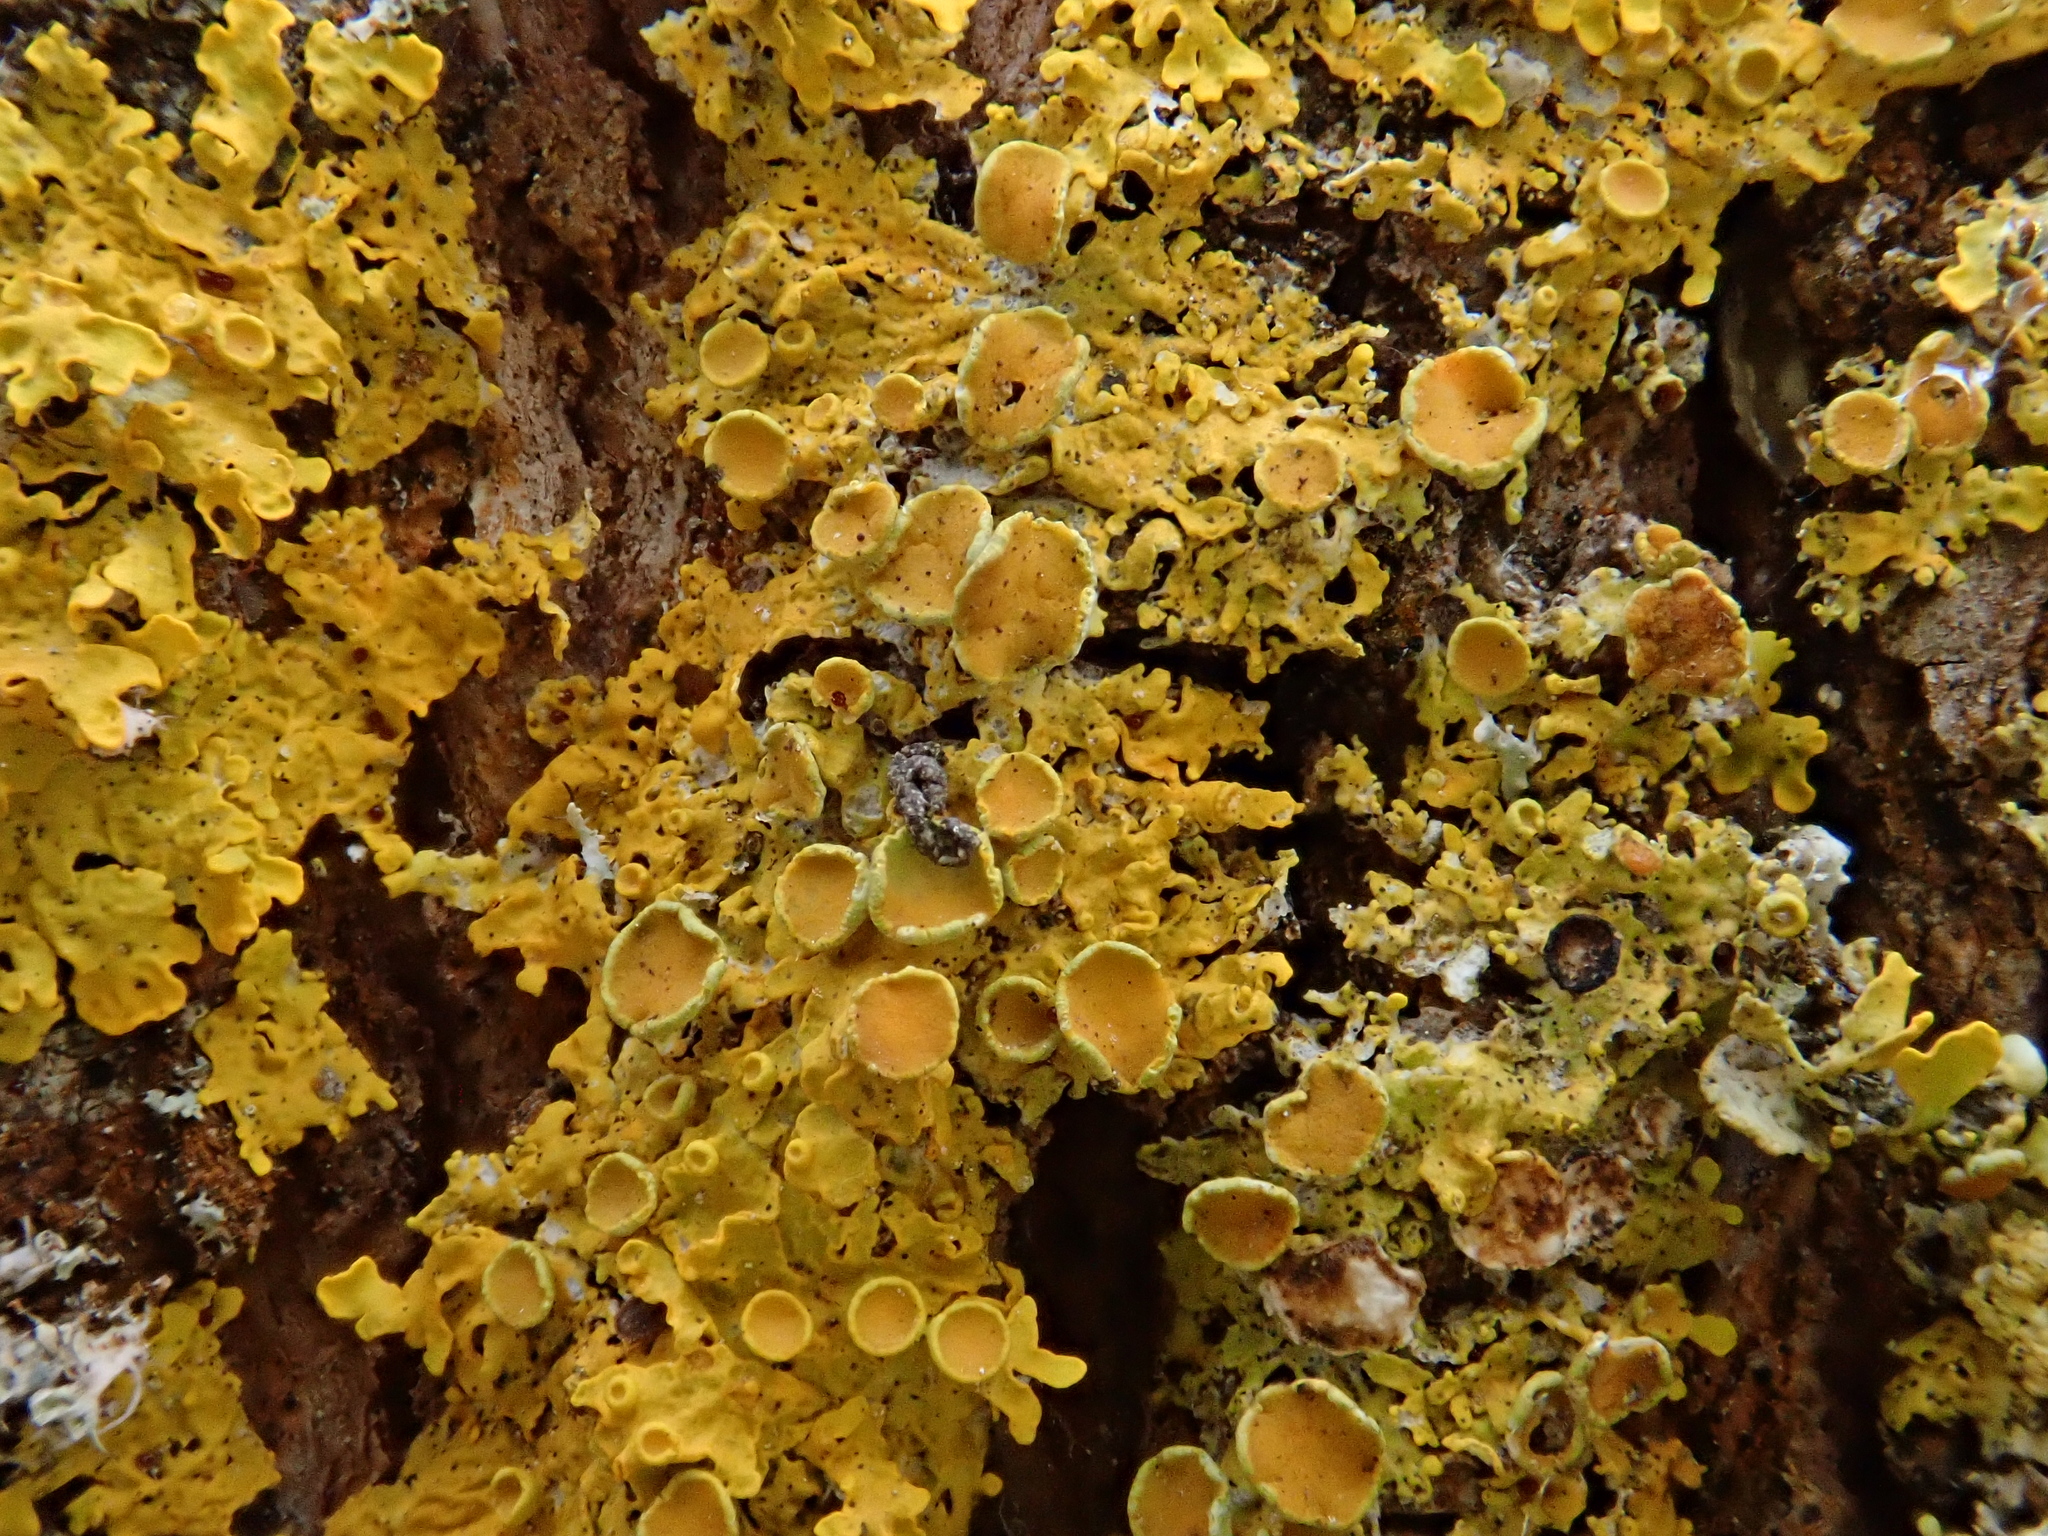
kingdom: Fungi
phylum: Ascomycota
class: Lecanoromycetes
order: Teloschistales
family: Teloschistaceae
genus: Xanthoria
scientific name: Xanthoria parietina
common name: Common orange lichen
